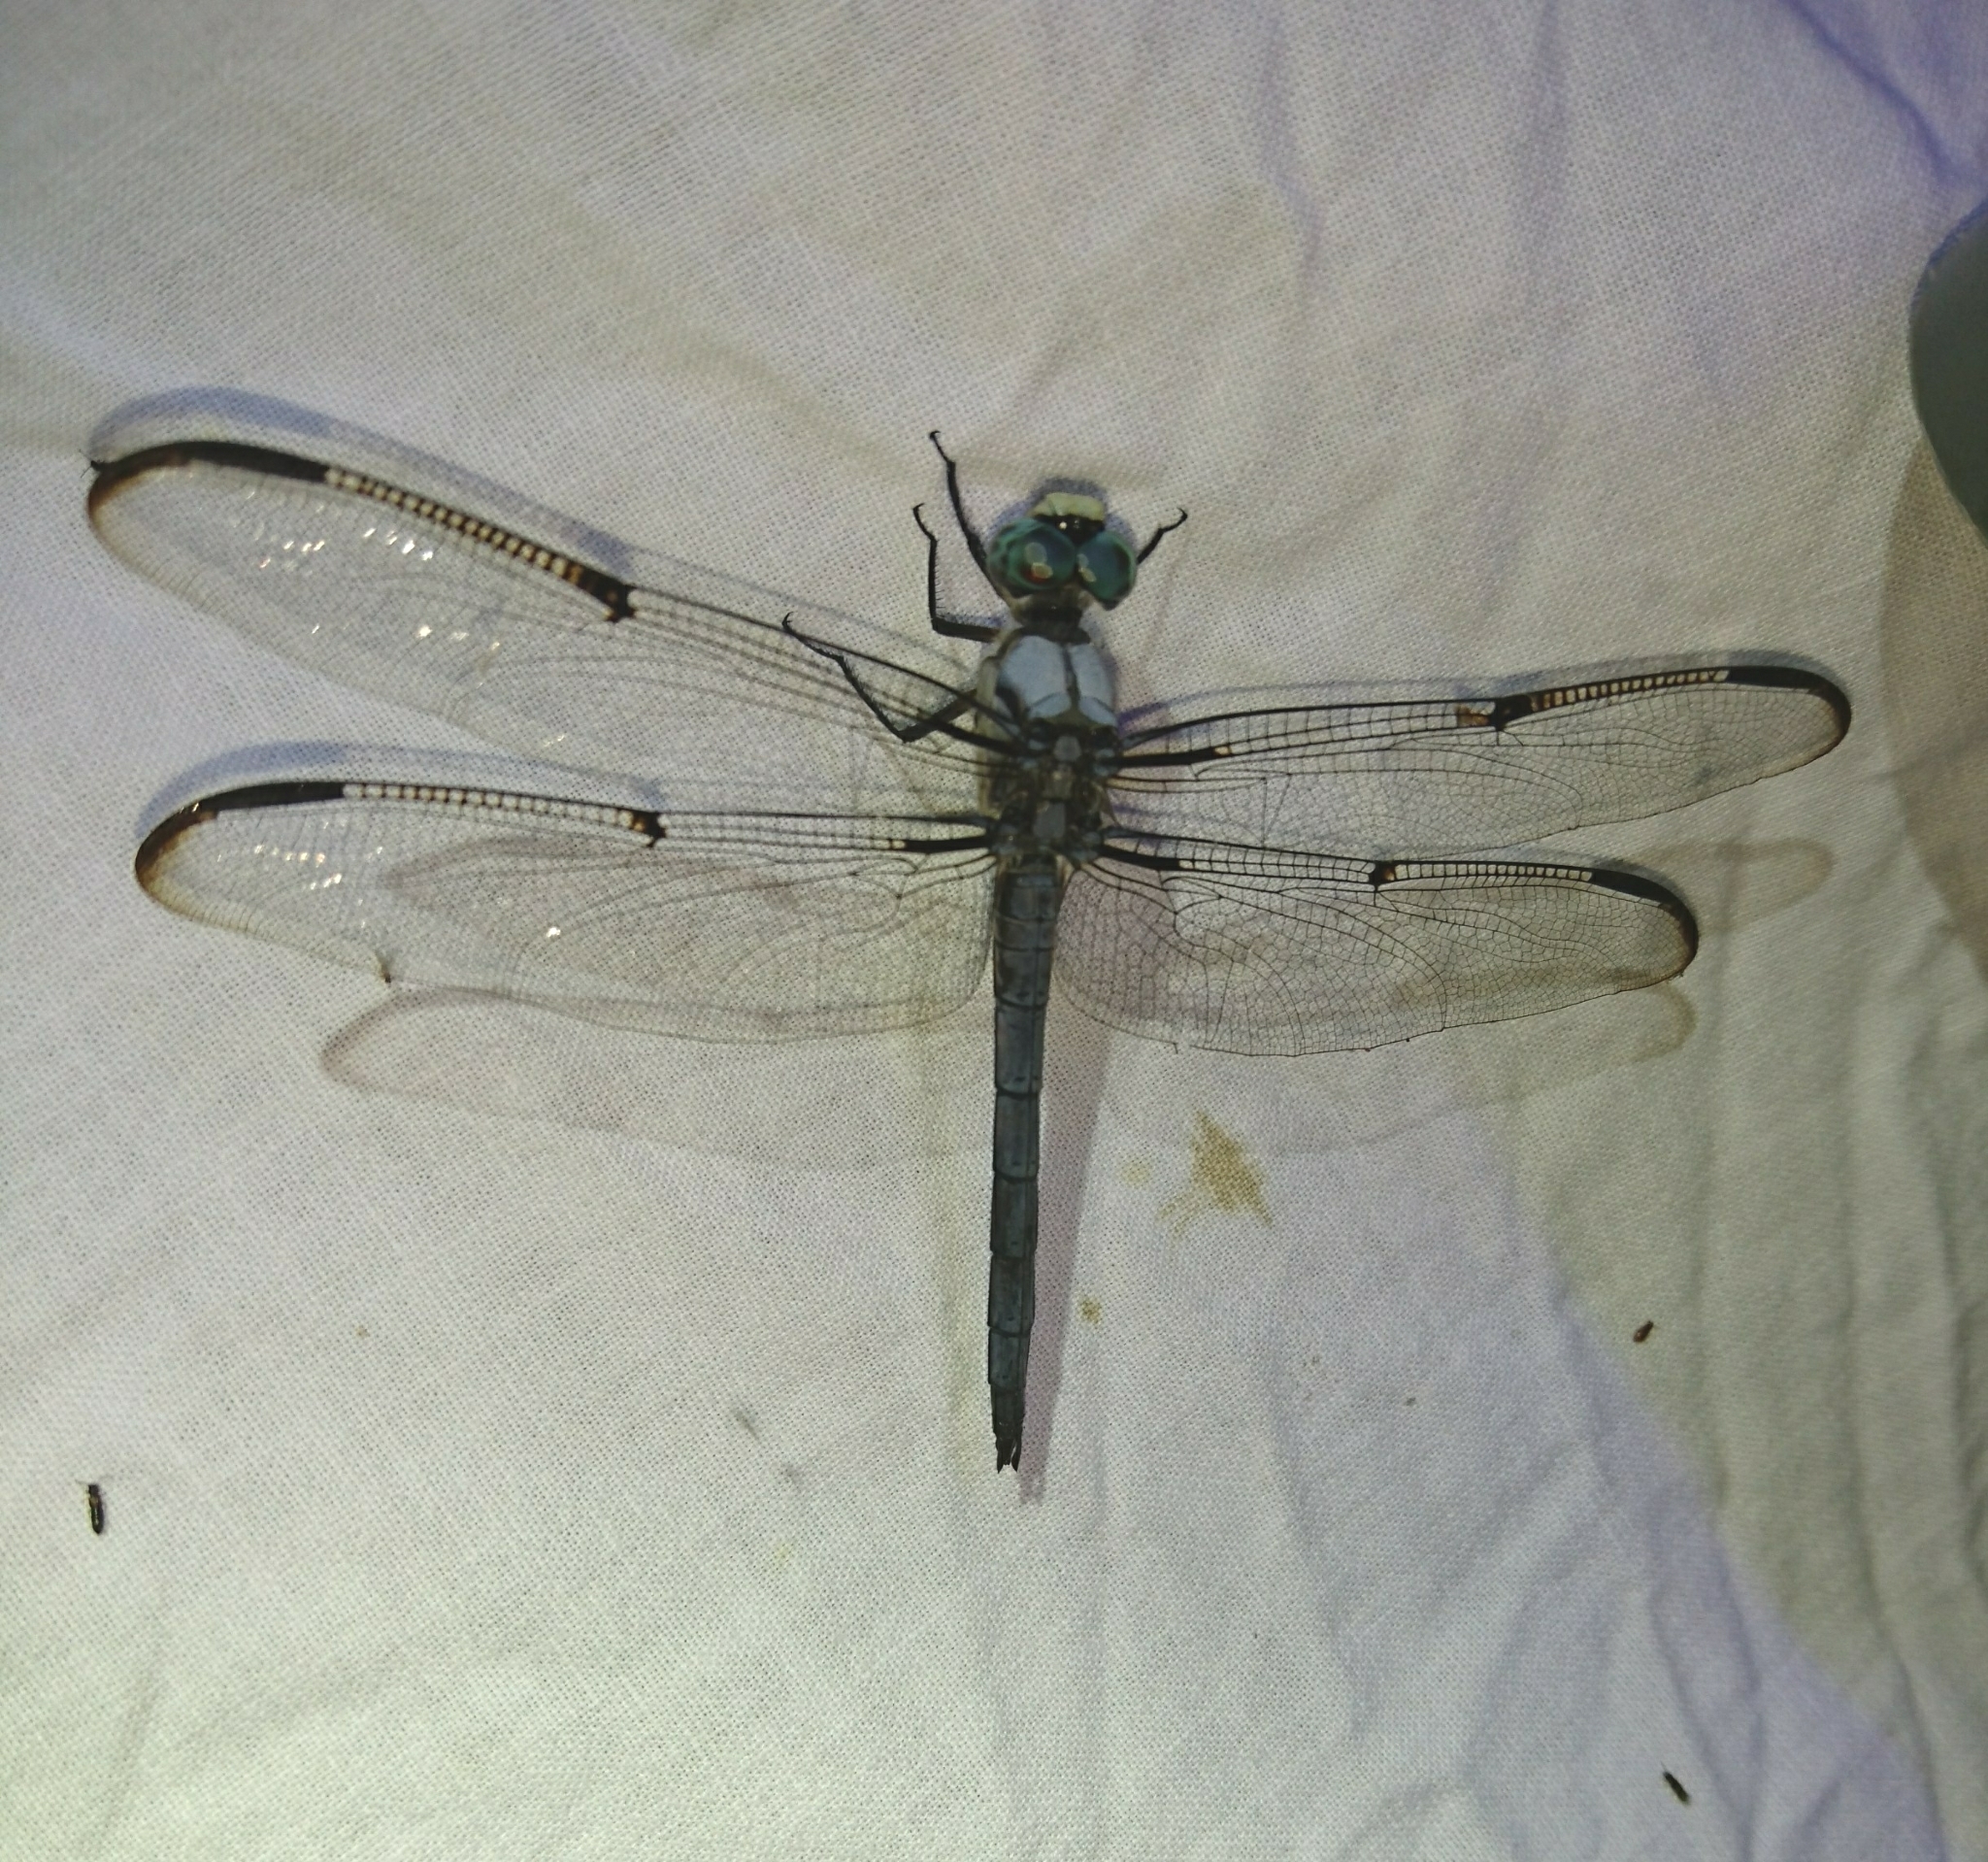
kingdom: Animalia
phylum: Arthropoda
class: Insecta
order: Odonata
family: Libellulidae
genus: Libellula
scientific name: Libellula vibrans
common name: Great blue skimmer
